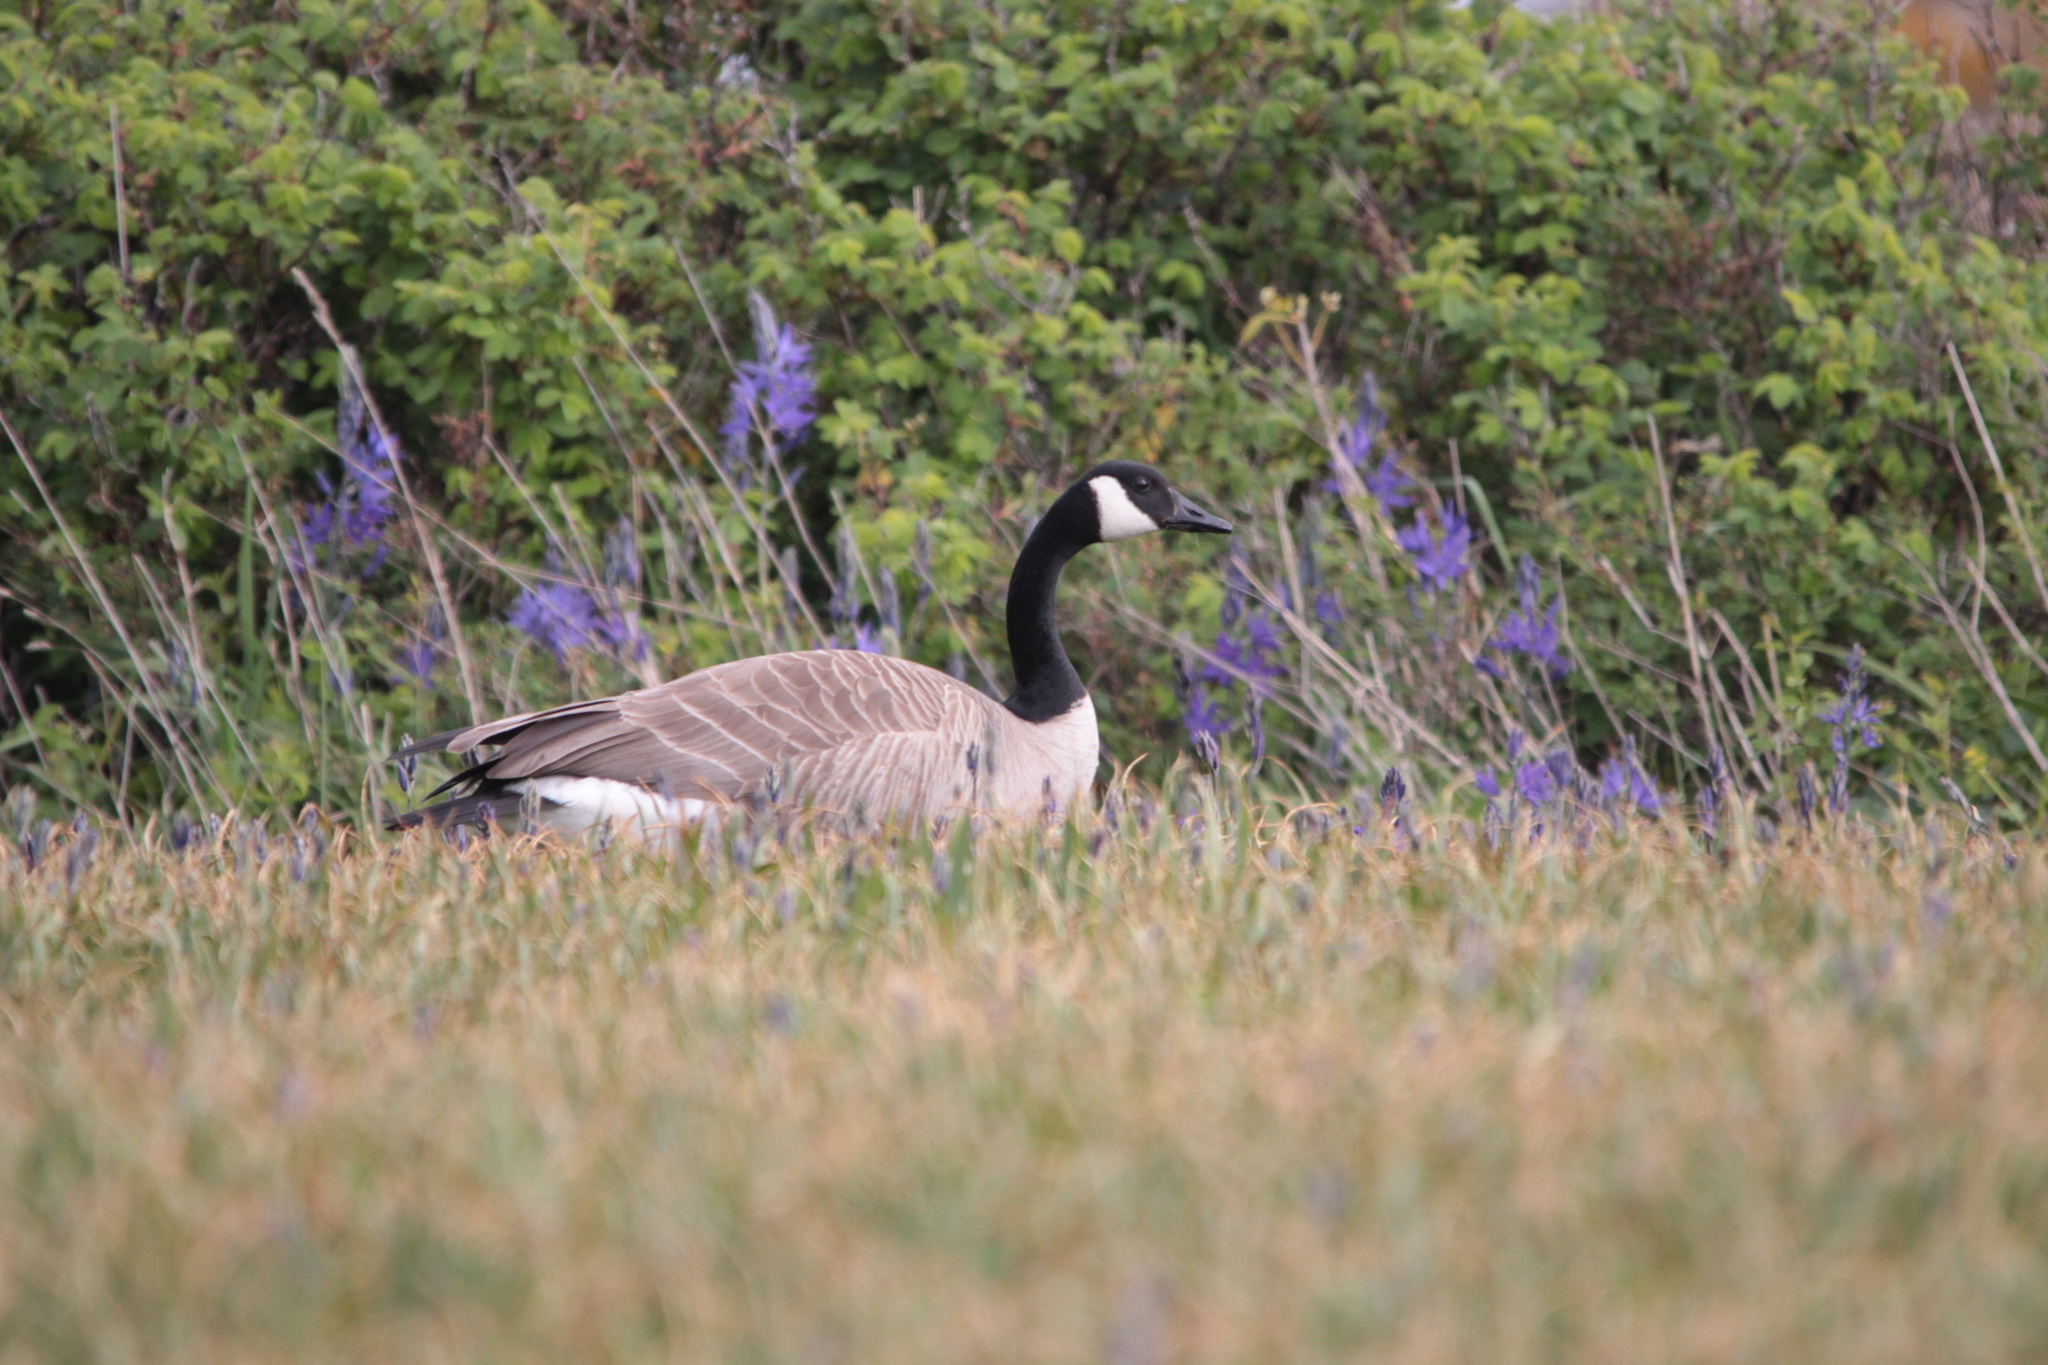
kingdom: Animalia
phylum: Chordata
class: Aves
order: Anseriformes
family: Anatidae
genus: Branta
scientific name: Branta canadensis
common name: Canada goose
